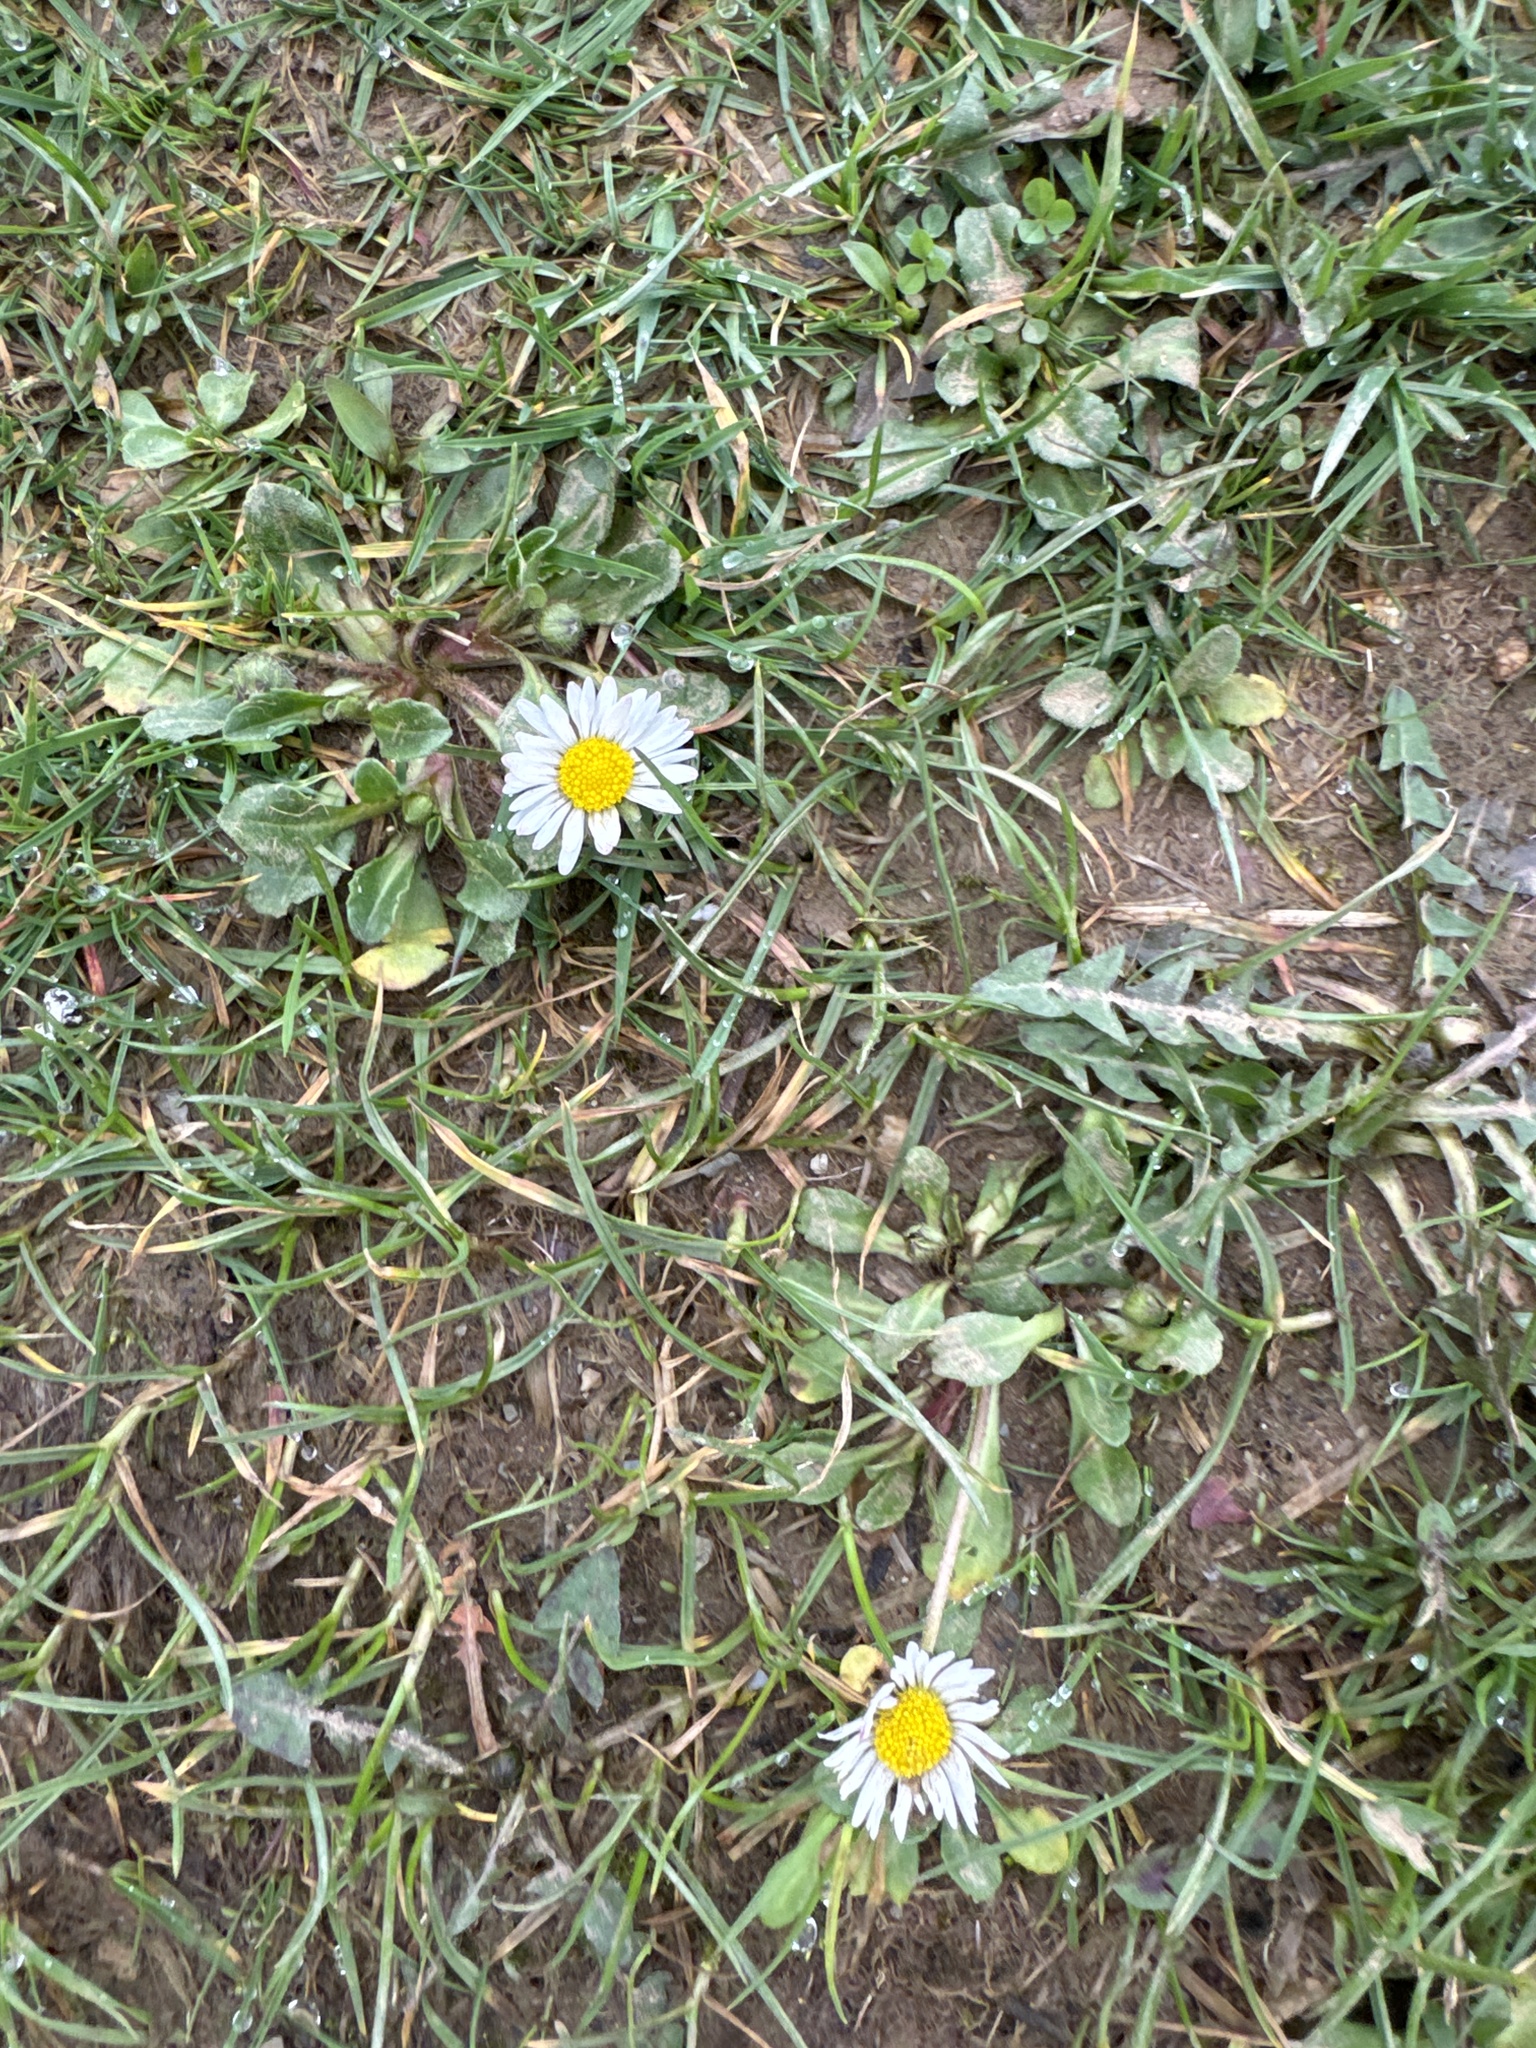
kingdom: Plantae
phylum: Tracheophyta
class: Magnoliopsida
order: Asterales
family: Asteraceae
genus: Bellis
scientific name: Bellis perennis
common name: Lawndaisy
